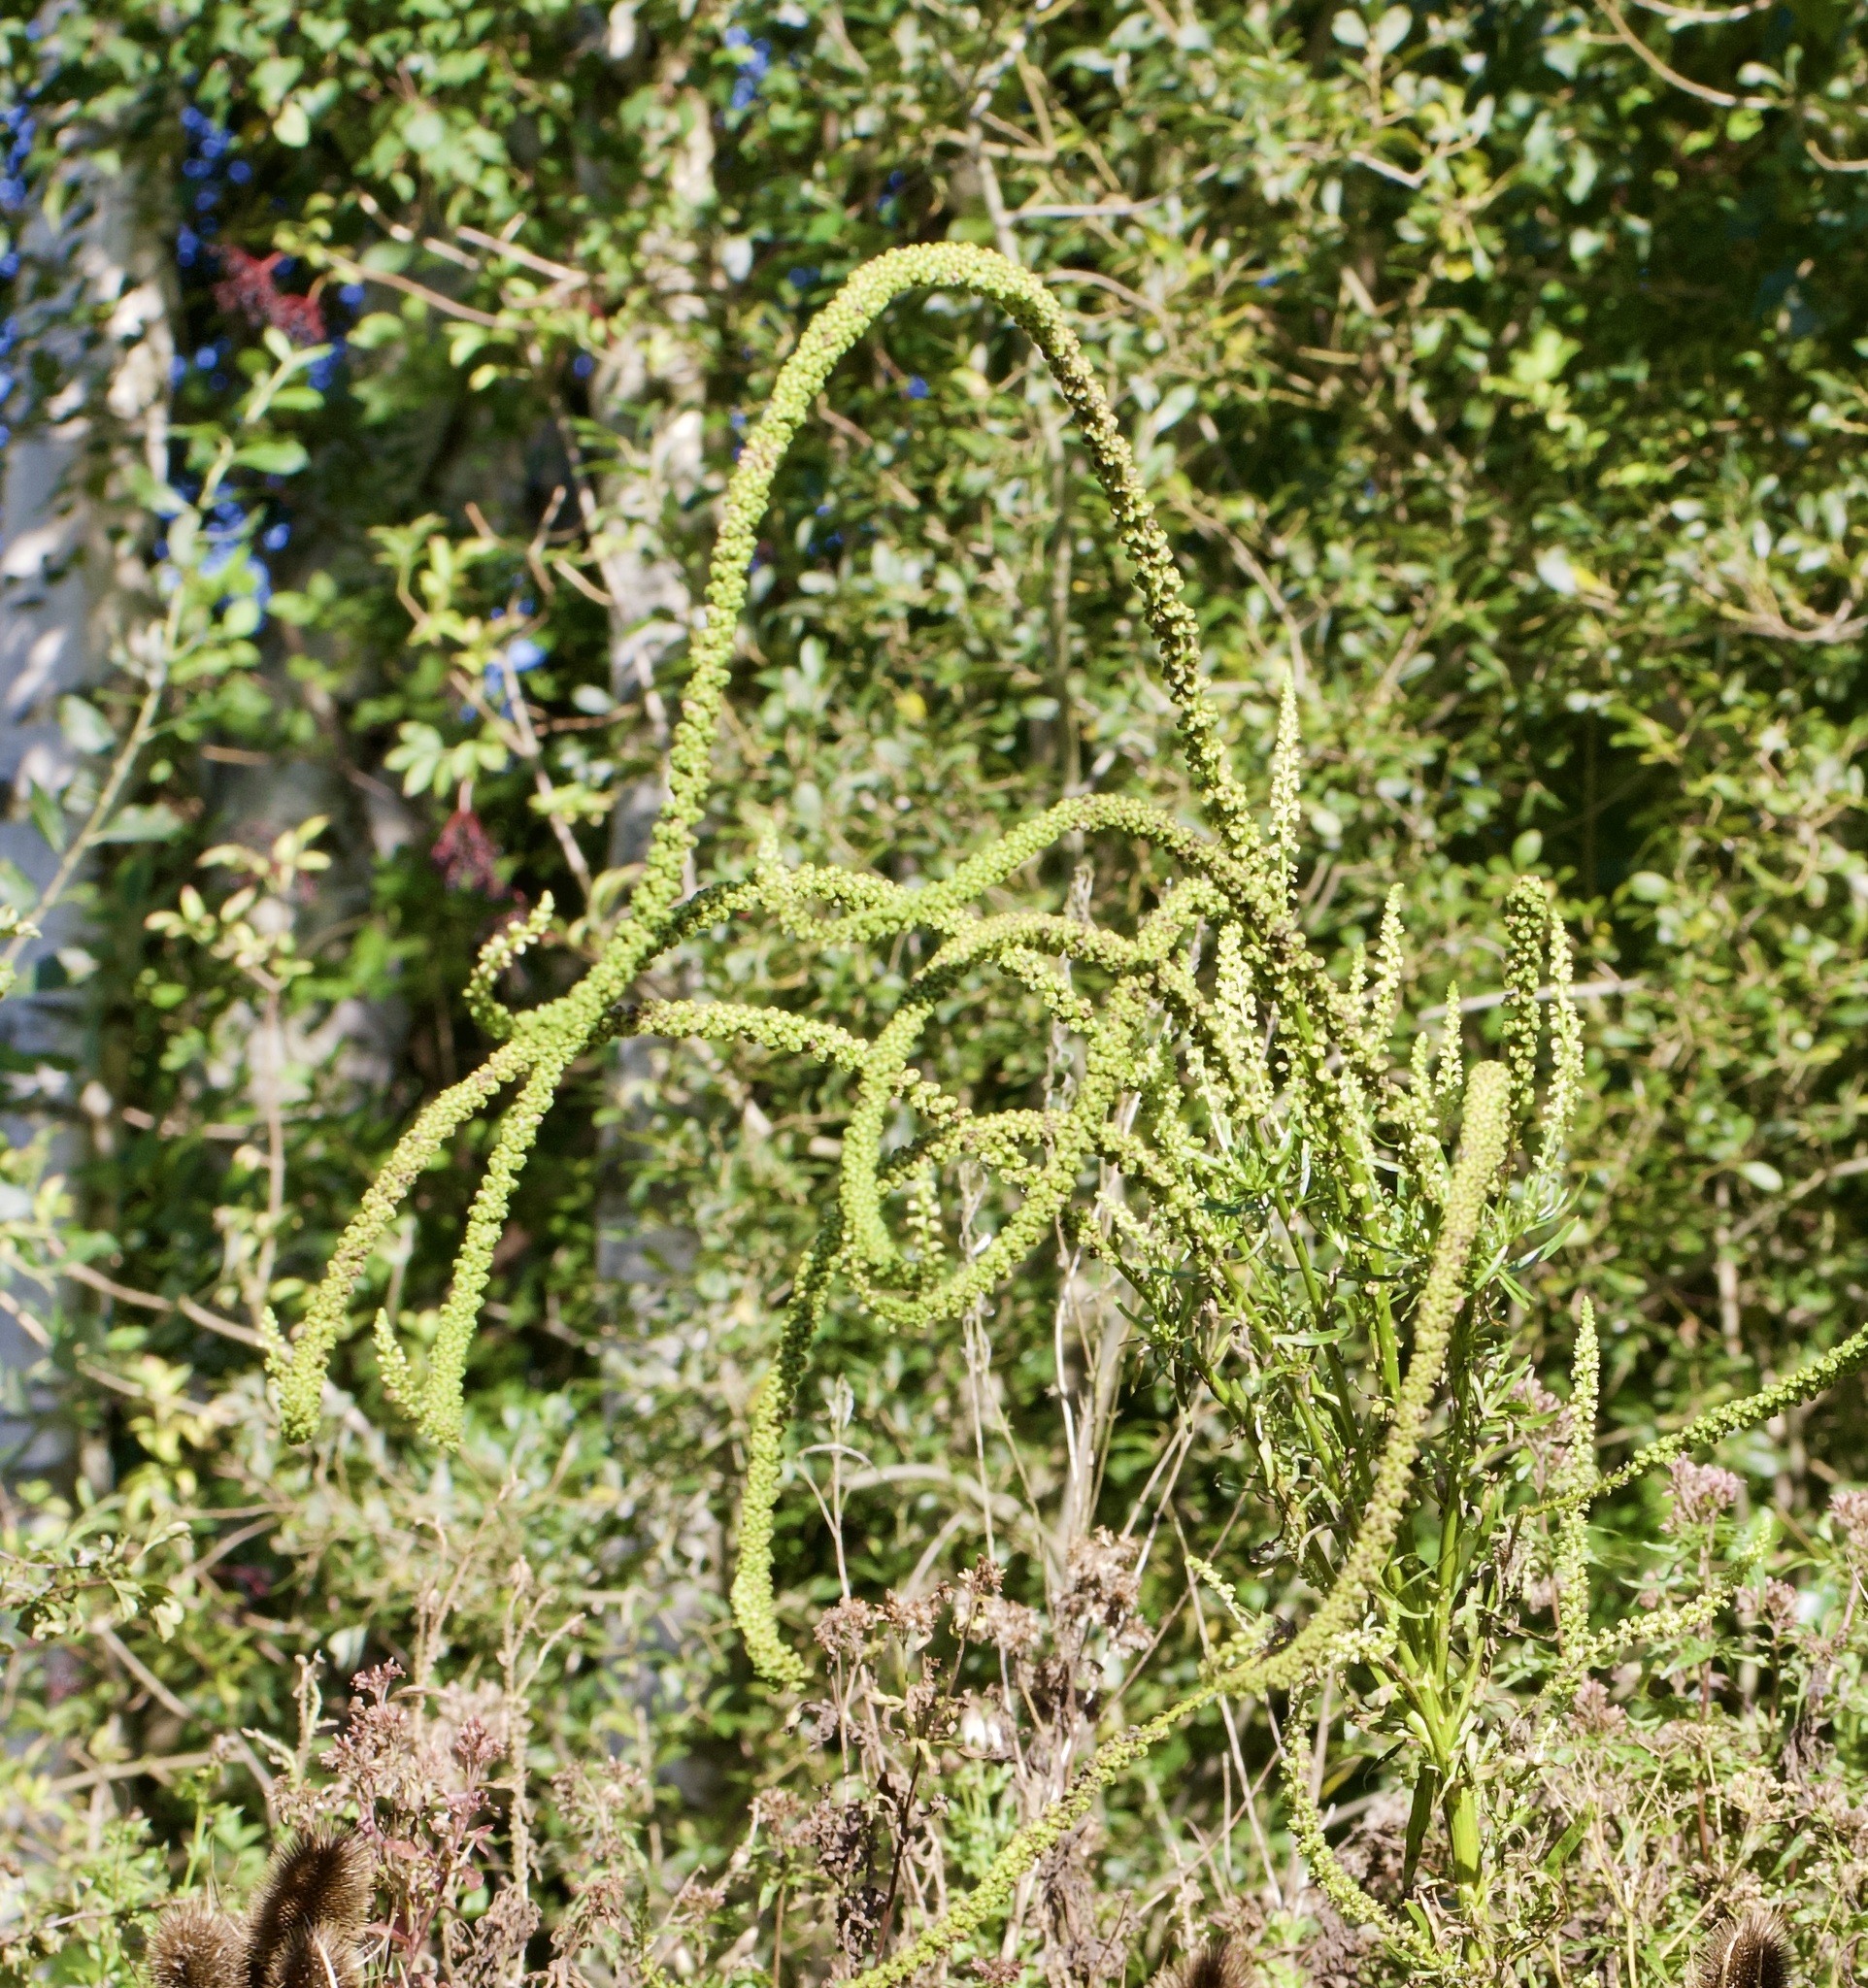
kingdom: Plantae
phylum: Tracheophyta
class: Magnoliopsida
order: Brassicales
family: Resedaceae
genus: Reseda
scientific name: Reseda luteola
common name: Weld
